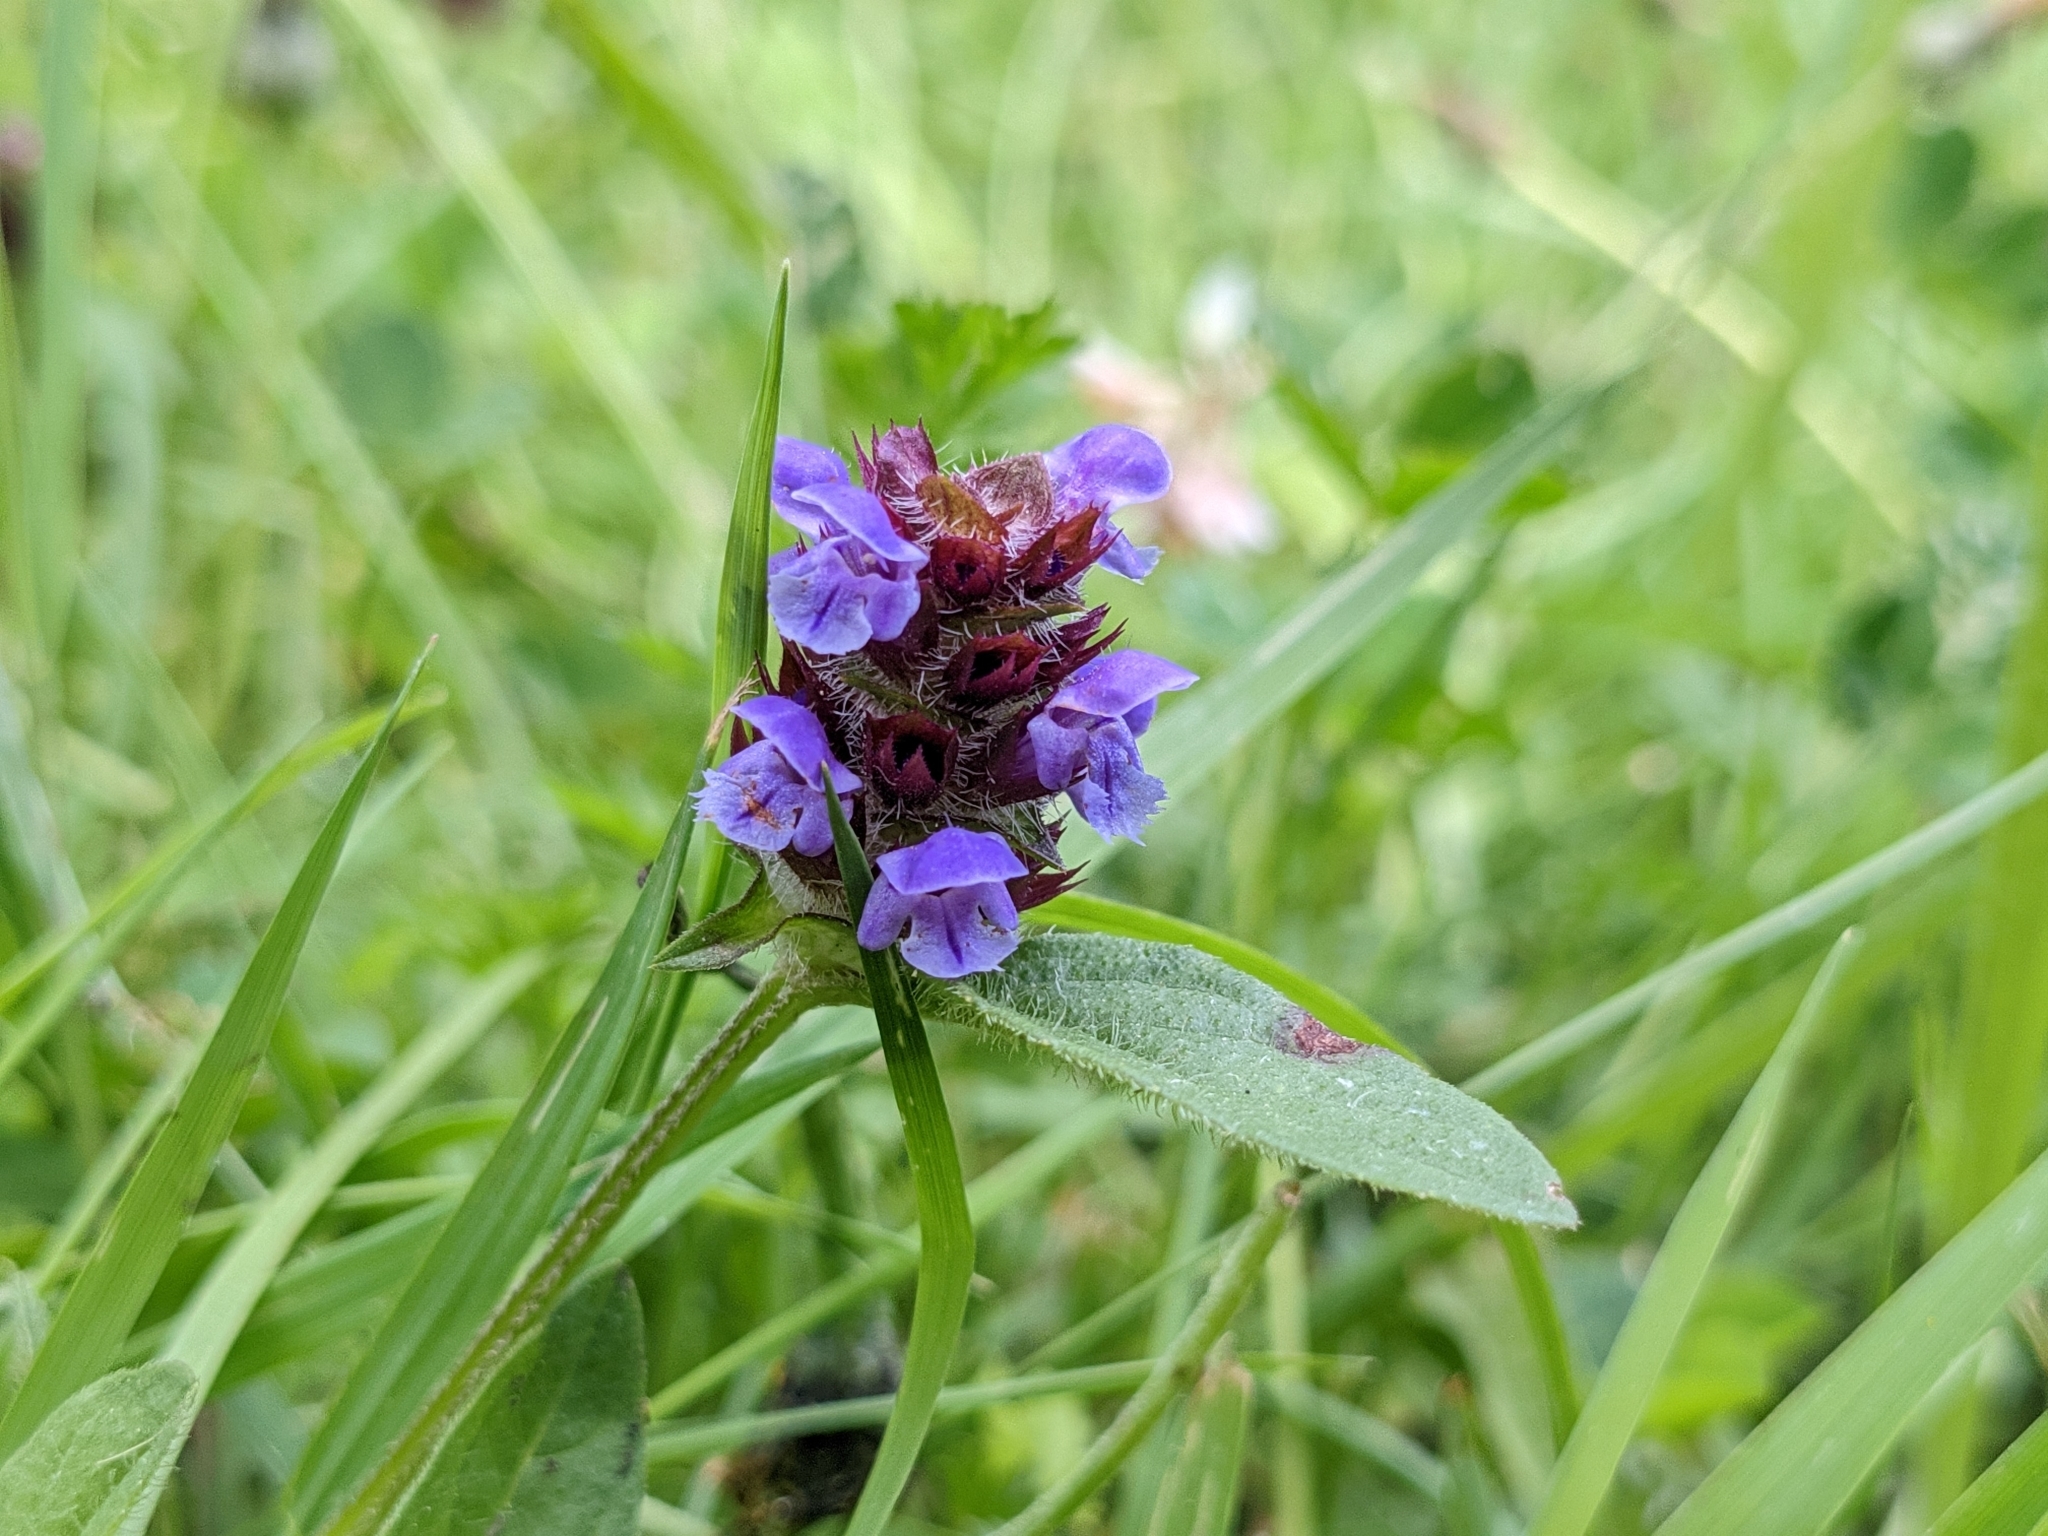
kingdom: Plantae
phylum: Tracheophyta
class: Magnoliopsida
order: Lamiales
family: Lamiaceae
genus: Prunella
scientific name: Prunella vulgaris
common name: Heal-all
